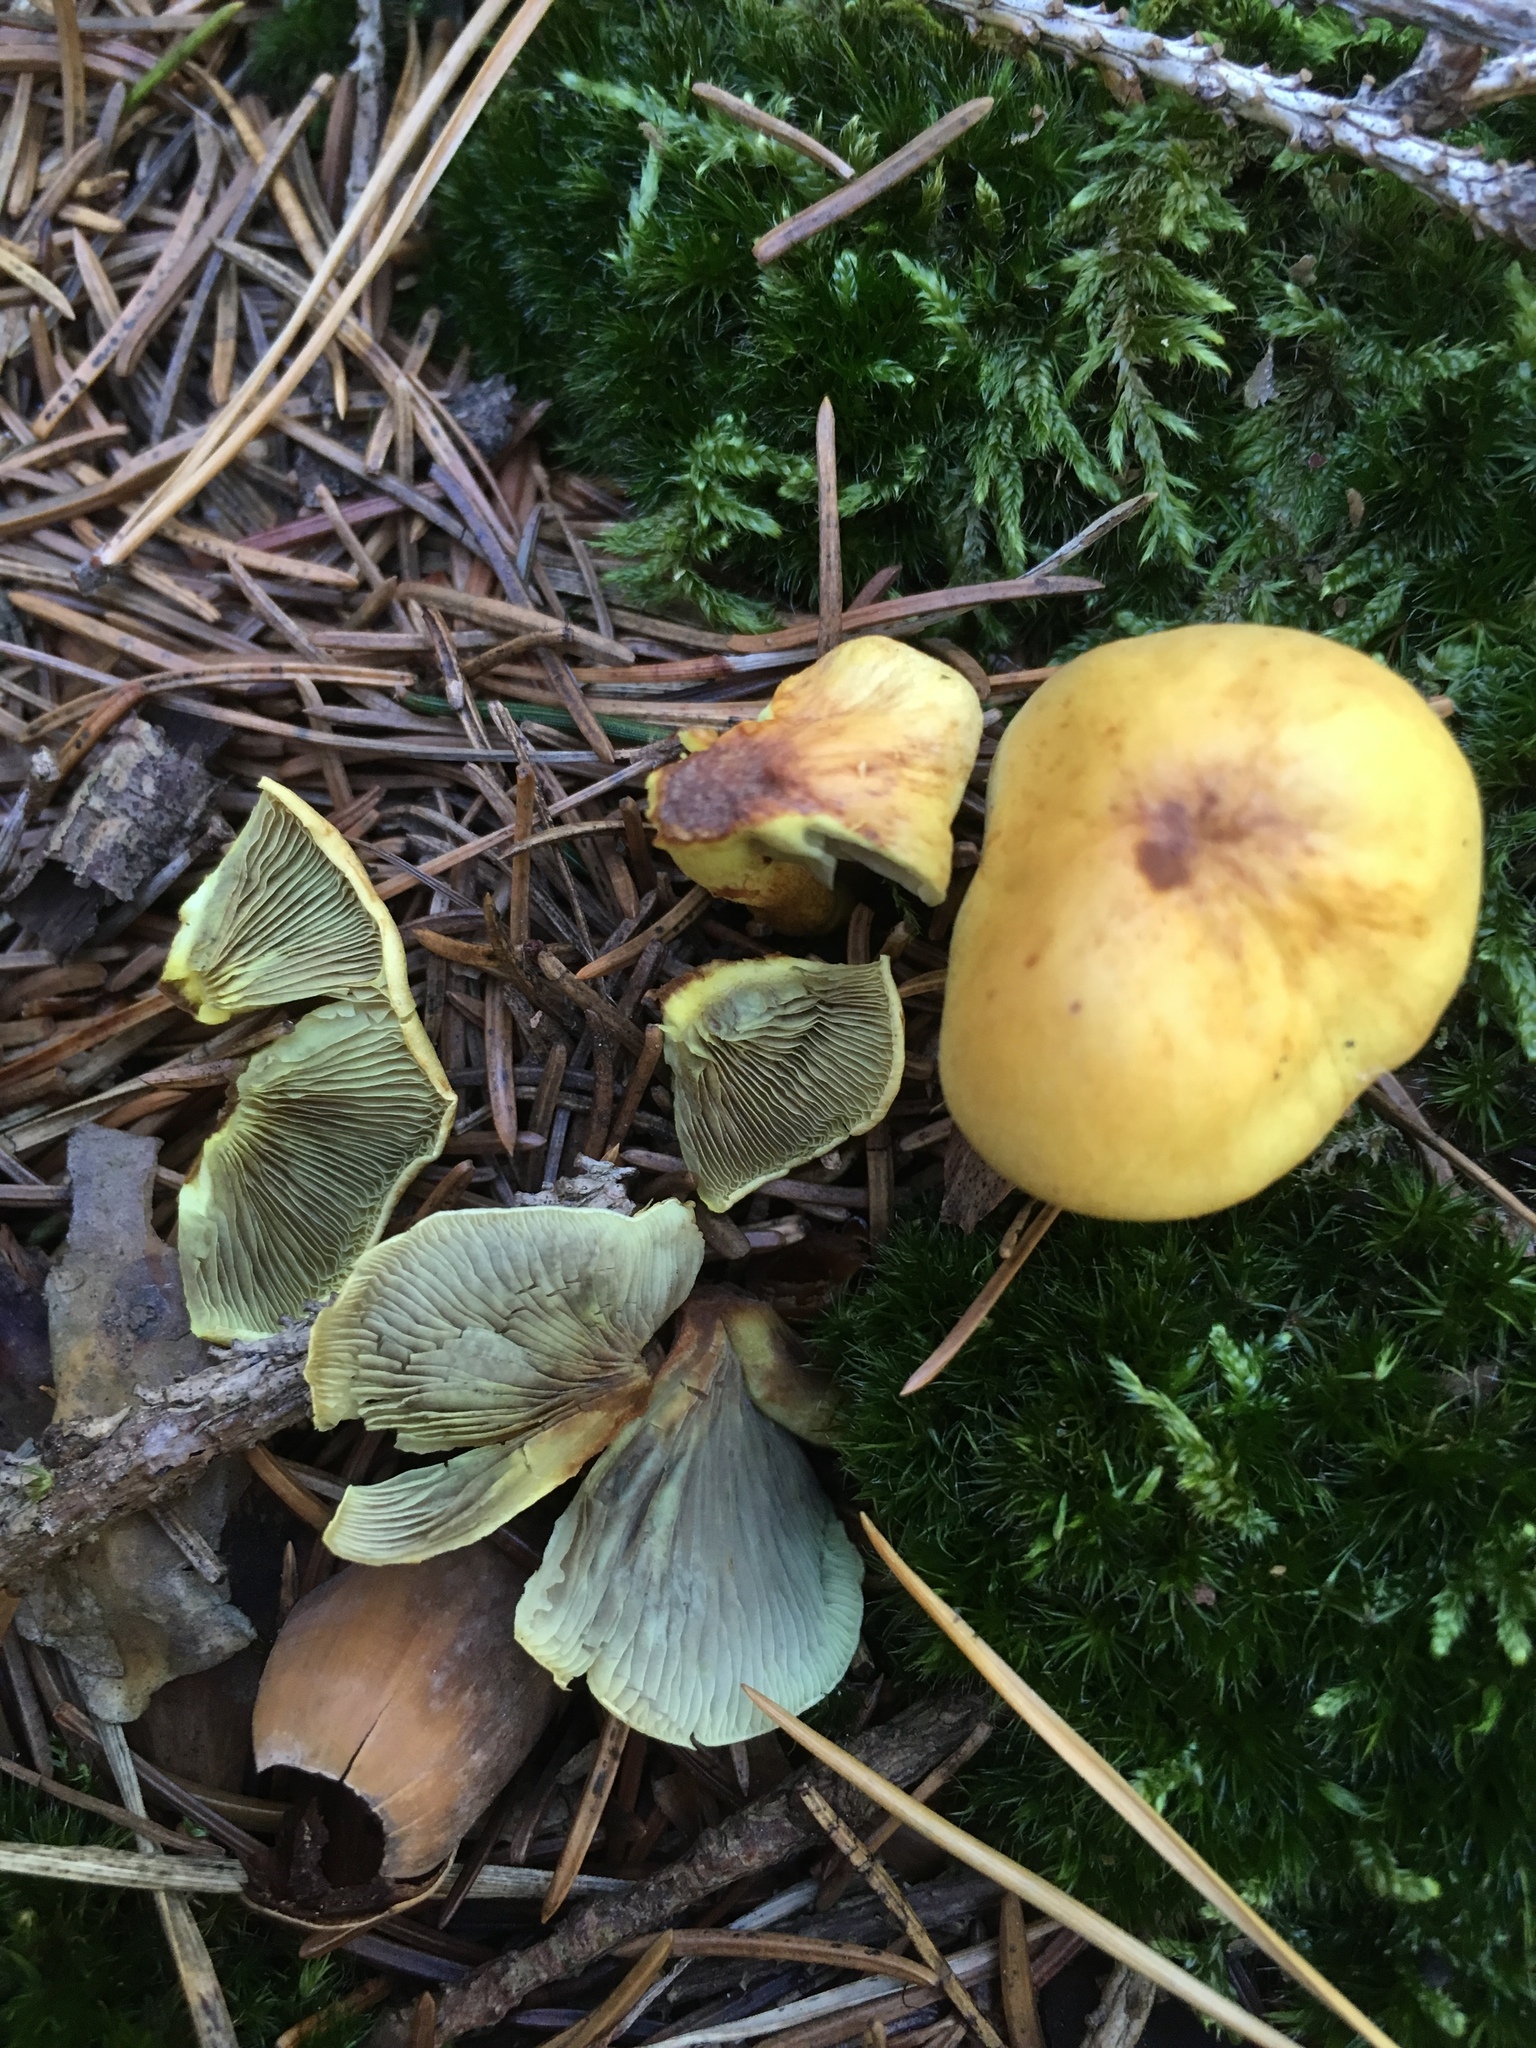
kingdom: Fungi
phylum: Basidiomycota
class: Agaricomycetes
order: Agaricales
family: Strophariaceae
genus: Hypholoma
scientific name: Hypholoma fasciculare
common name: Sulphur tuft
